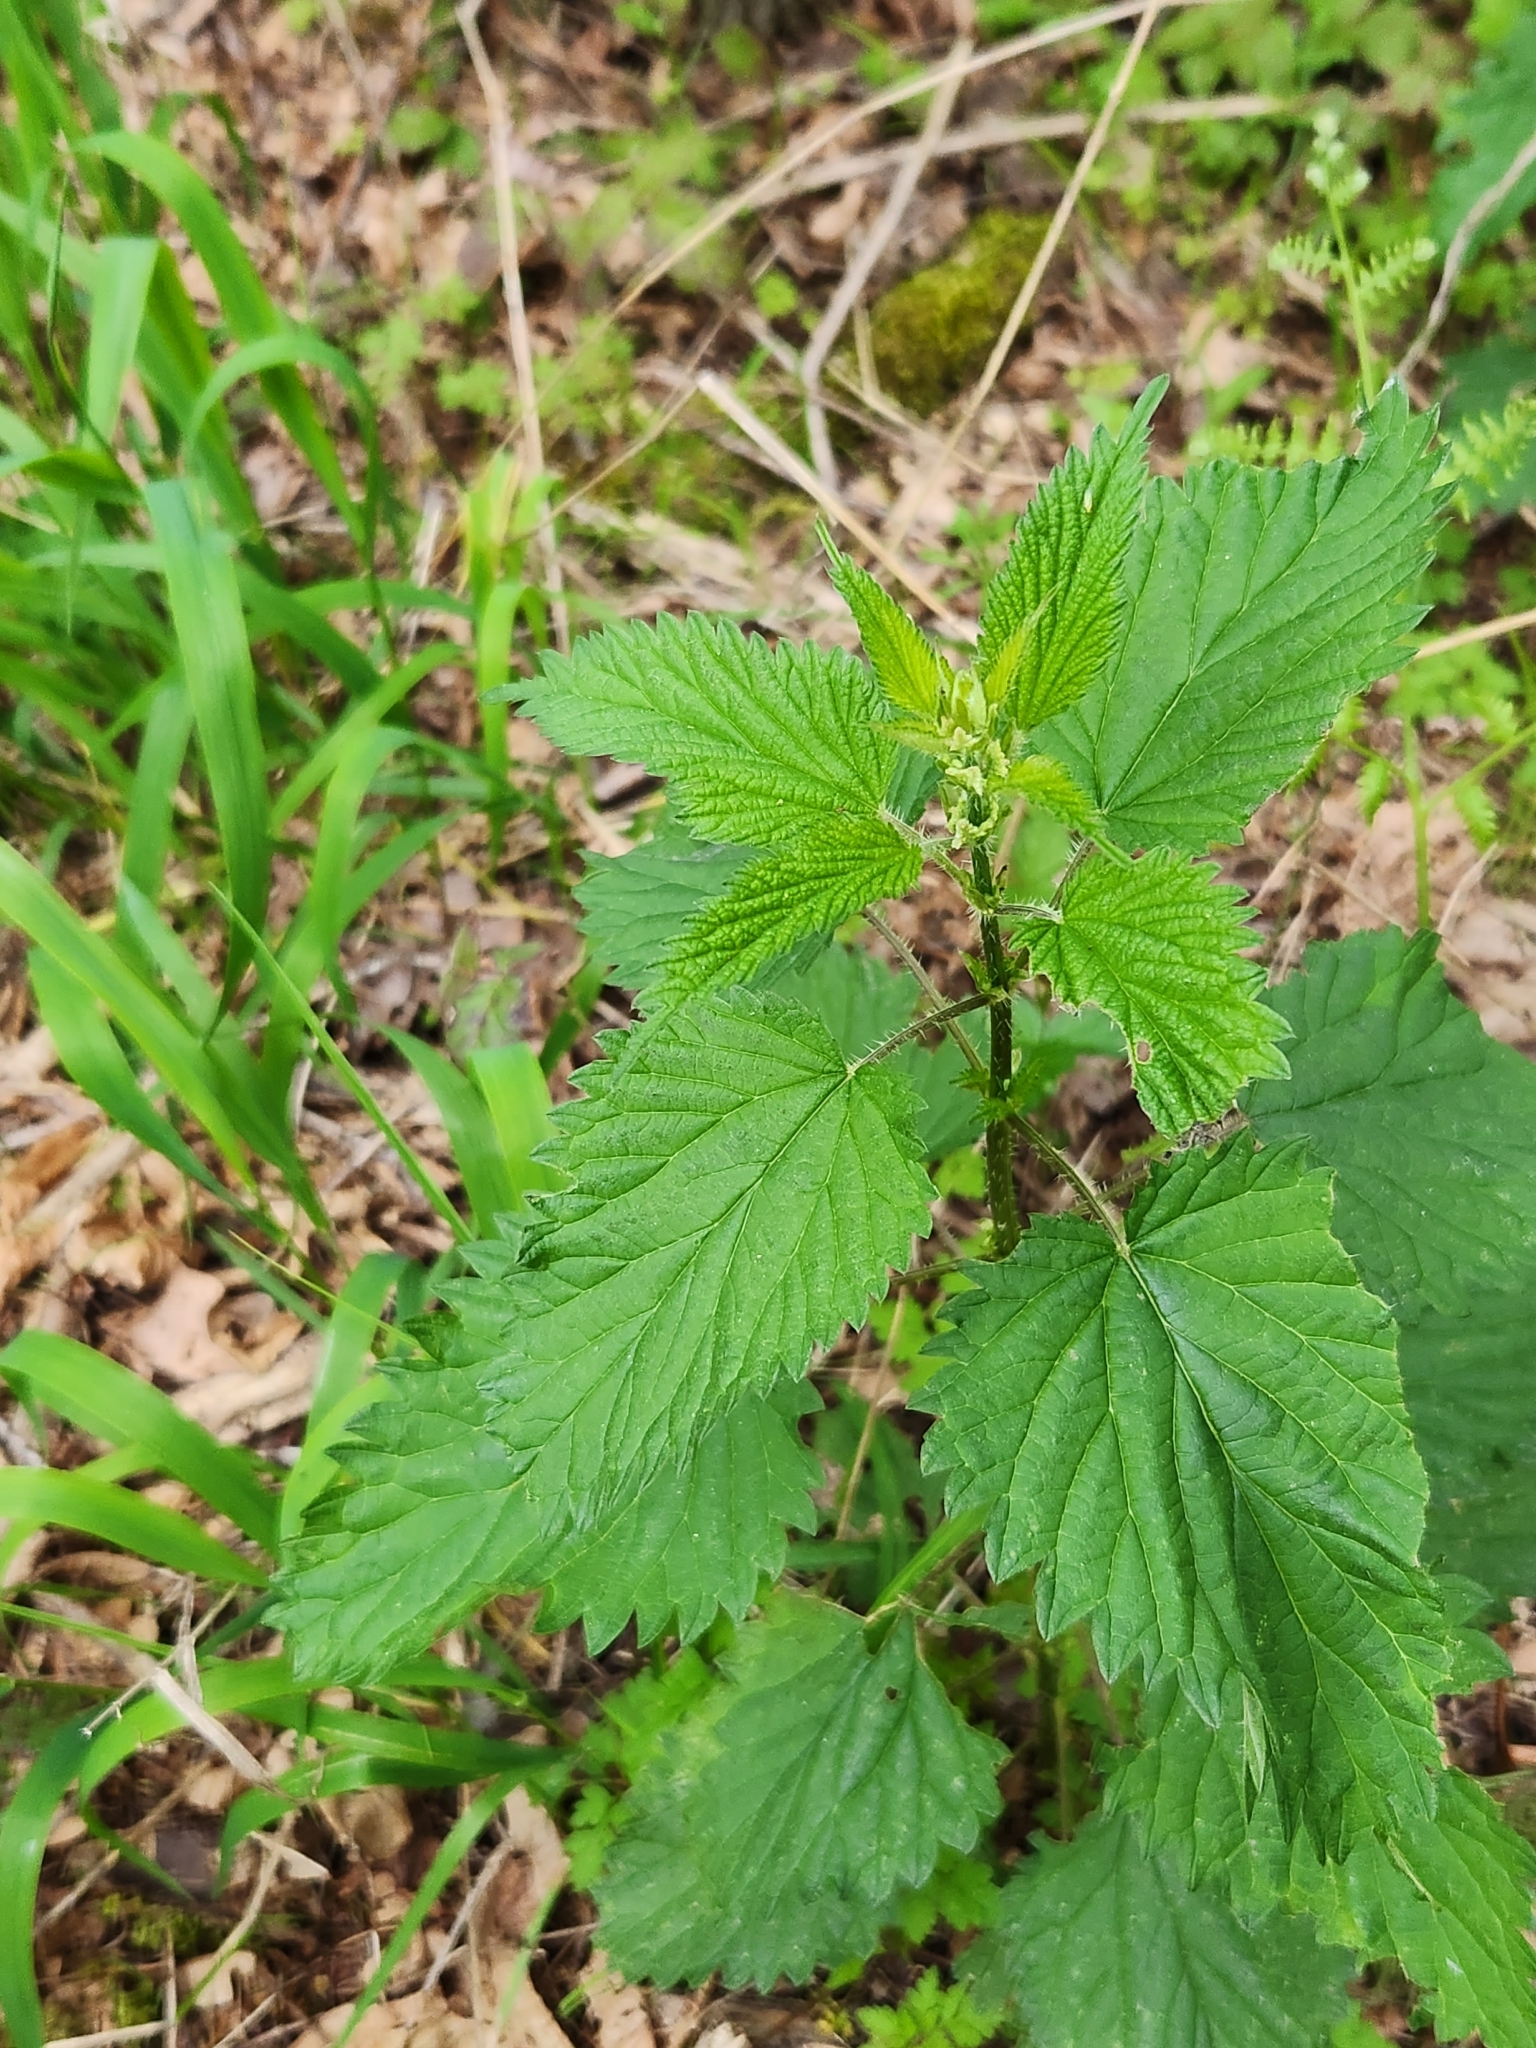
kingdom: Plantae
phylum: Tracheophyta
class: Magnoliopsida
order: Rosales
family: Urticaceae
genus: Urtica
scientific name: Urtica dioica
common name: Common nettle
